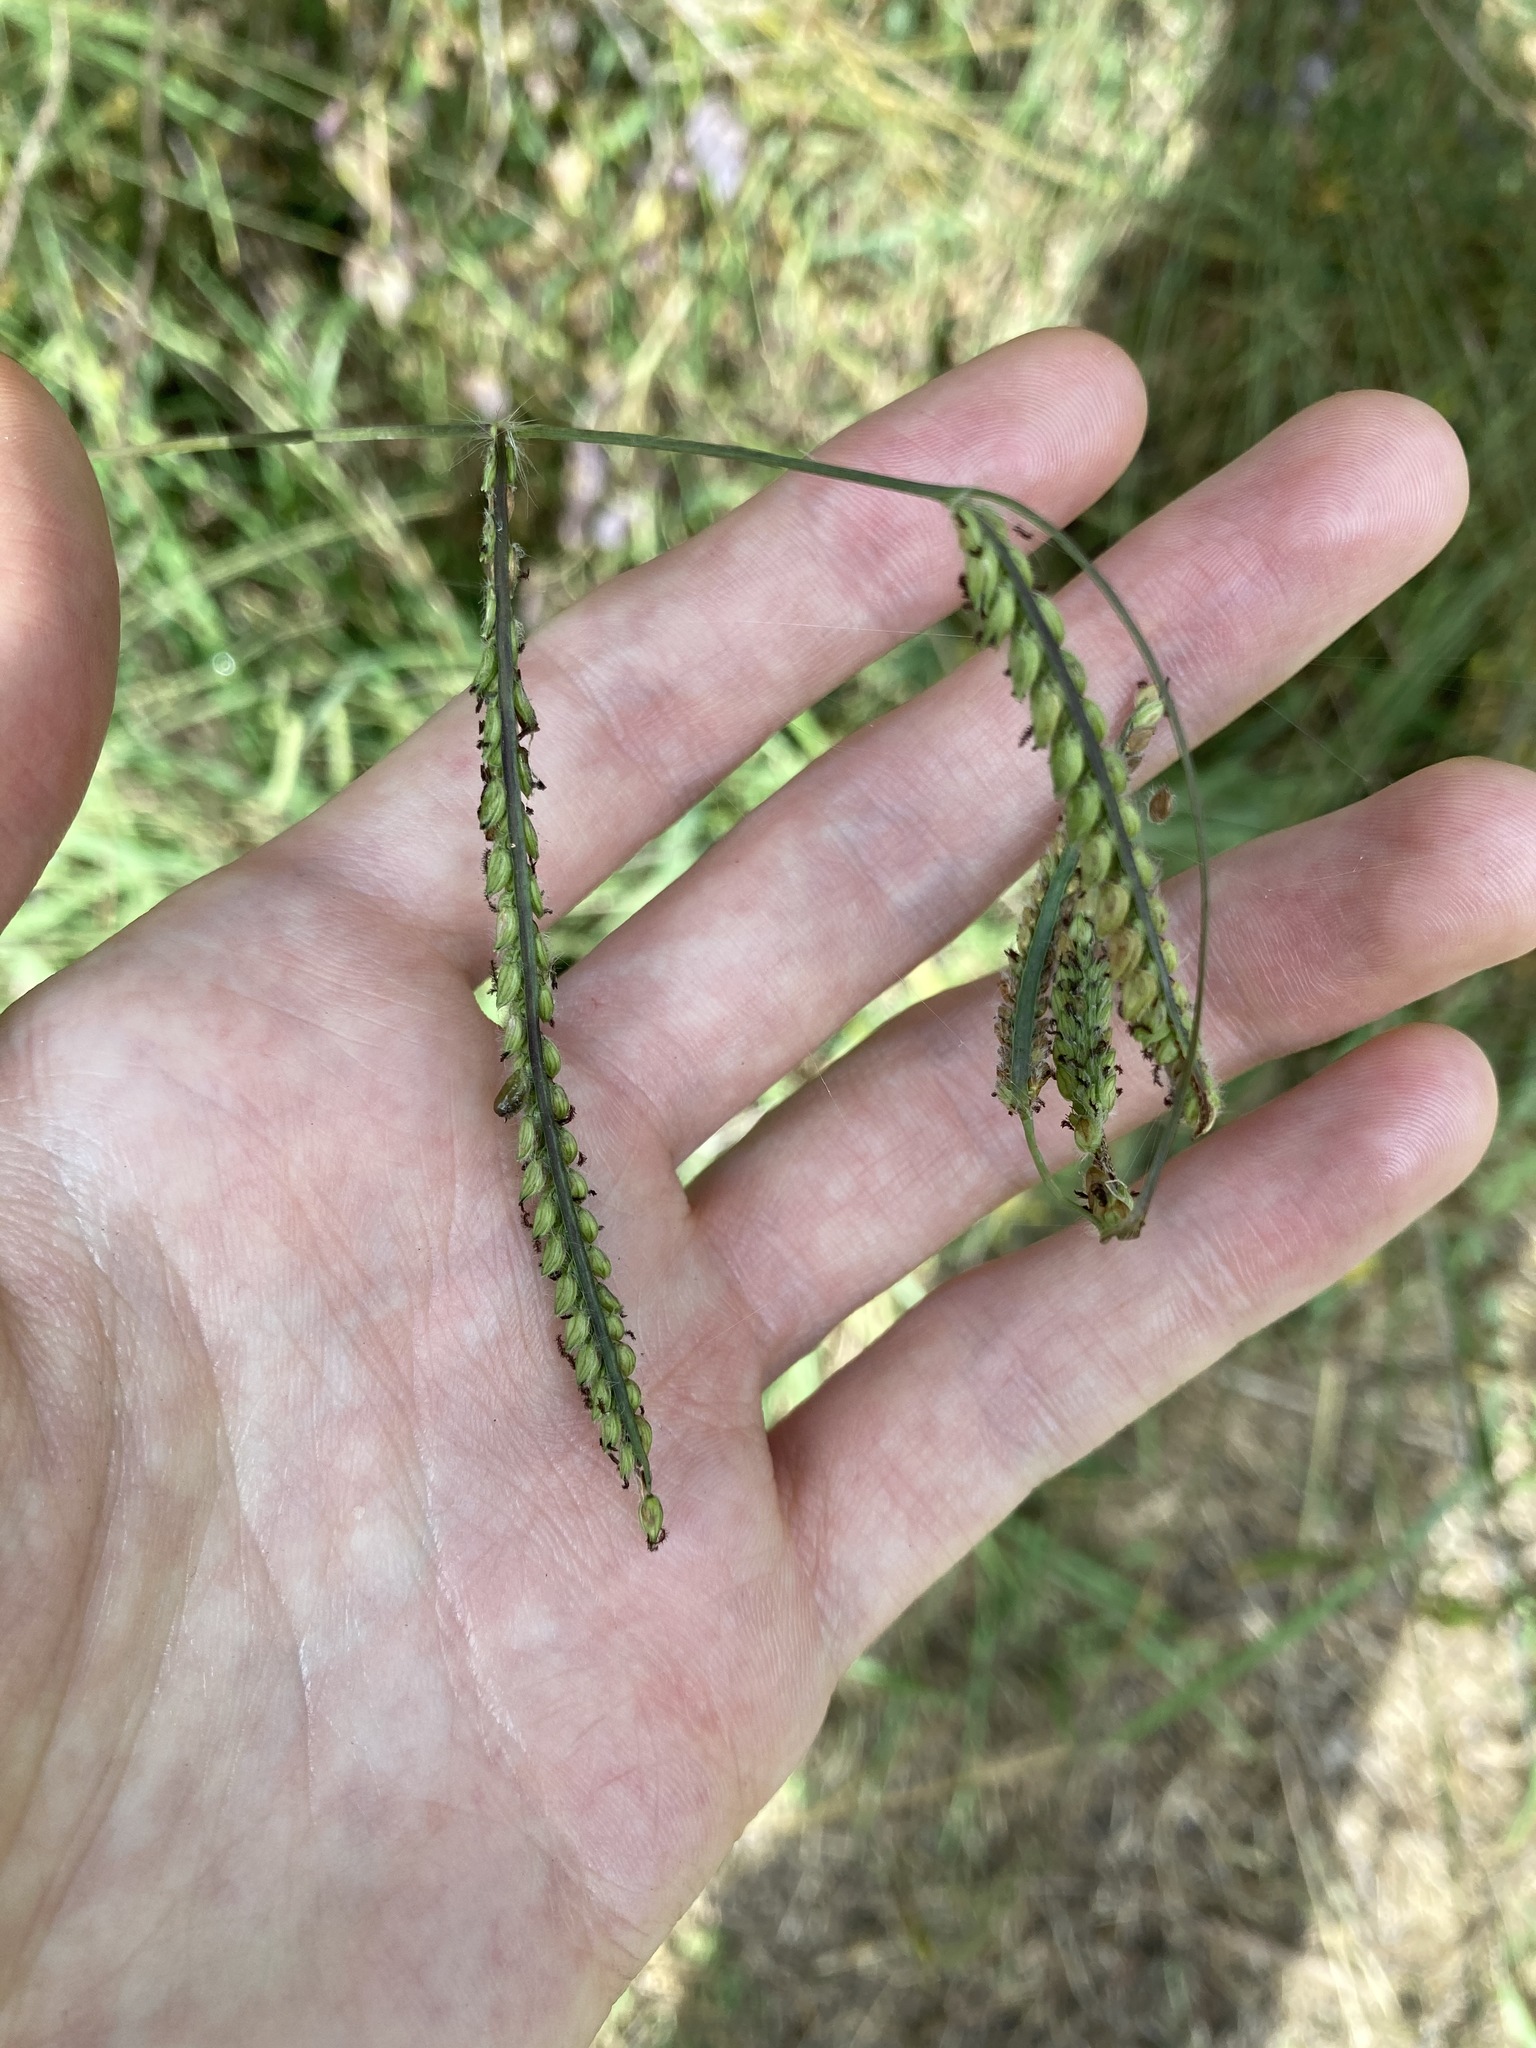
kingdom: Plantae
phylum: Tracheophyta
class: Liliopsida
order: Poales
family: Poaceae
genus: Paspalum
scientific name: Paspalum dilatatum
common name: Dallisgrass
